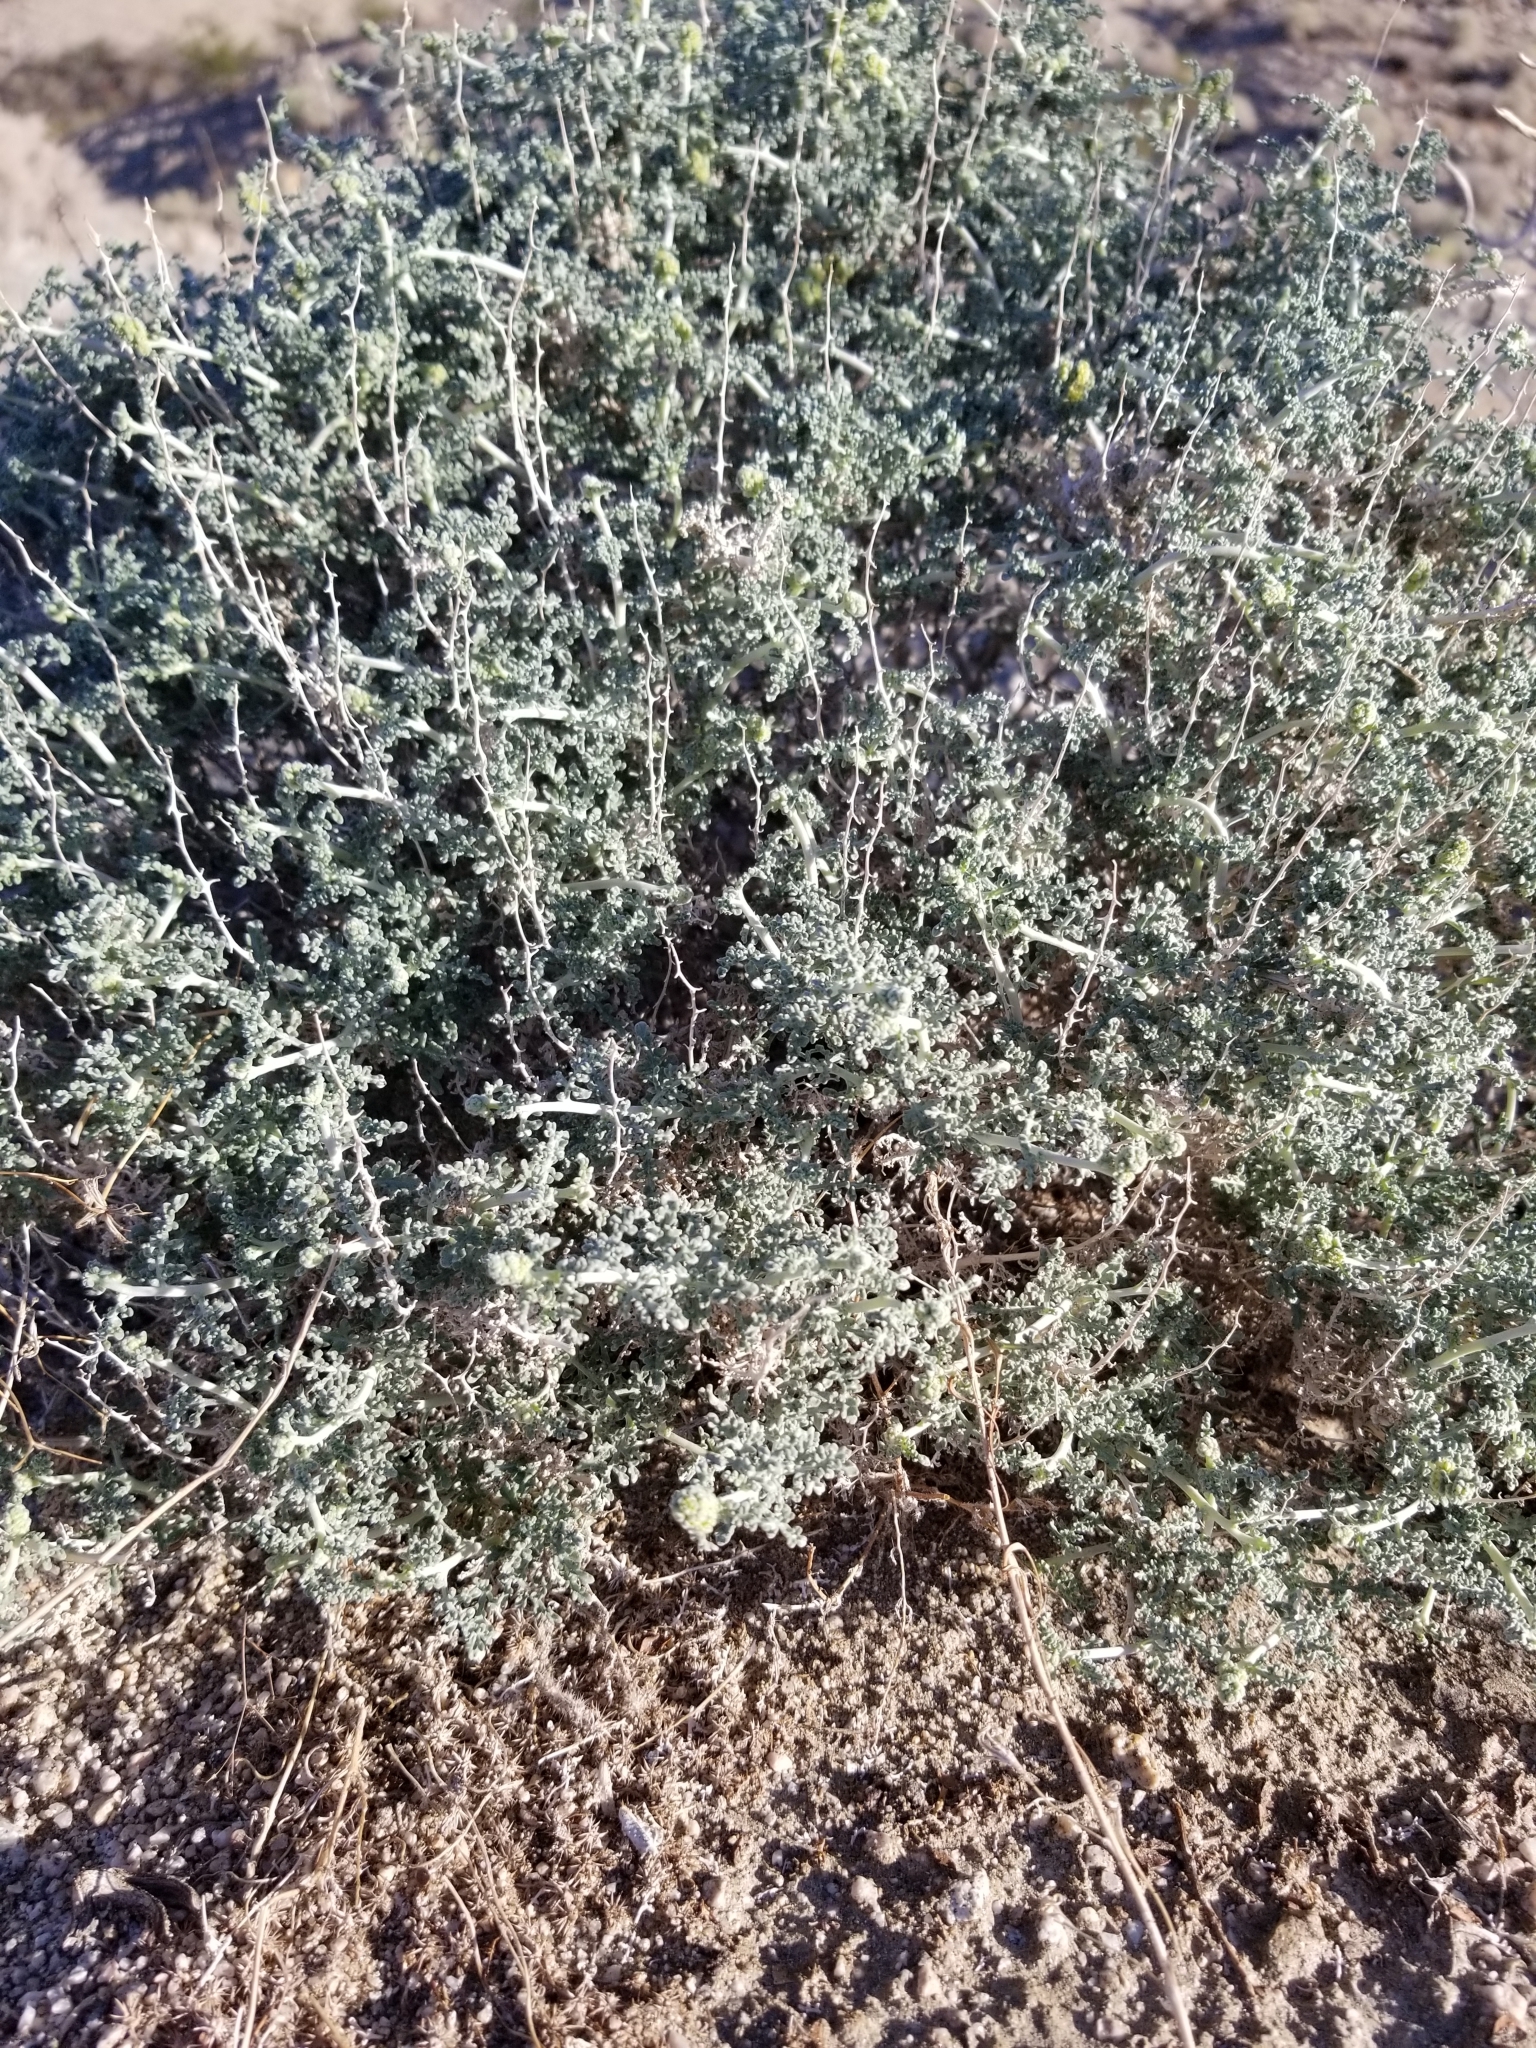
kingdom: Plantae
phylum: Tracheophyta
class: Magnoliopsida
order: Asterales
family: Asteraceae
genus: Ambrosia
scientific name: Ambrosia dumosa
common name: Bur-sage
